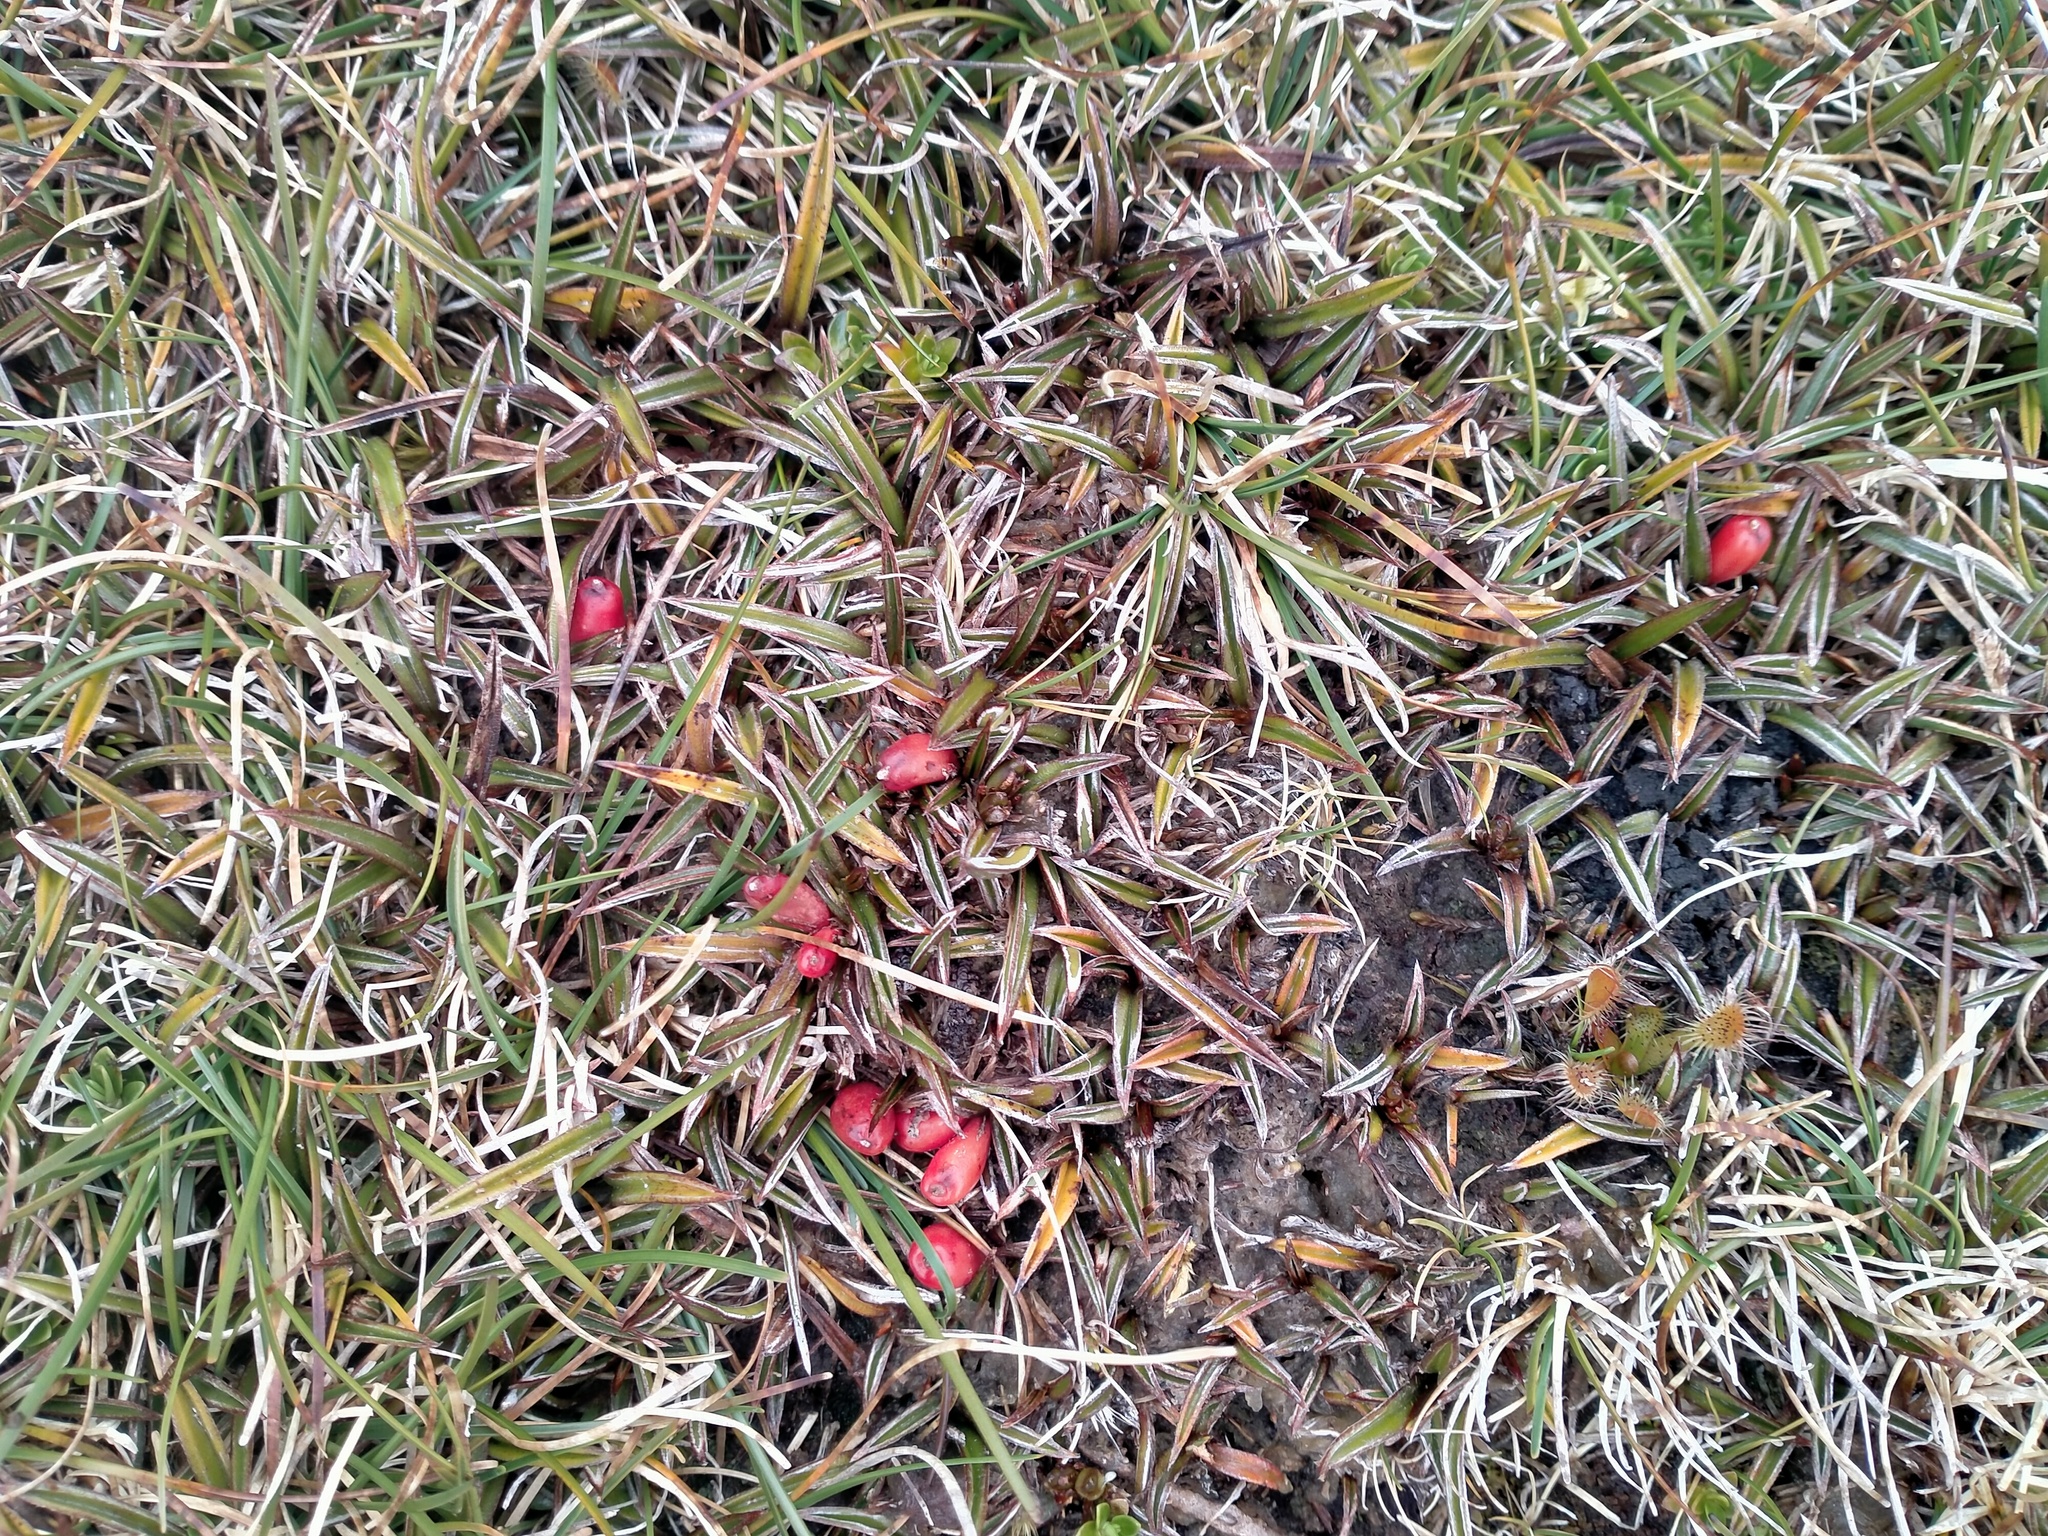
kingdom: Plantae
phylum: Tracheophyta
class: Liliopsida
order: Asparagales
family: Asteliaceae
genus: Astelia
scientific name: Astelia linearis
